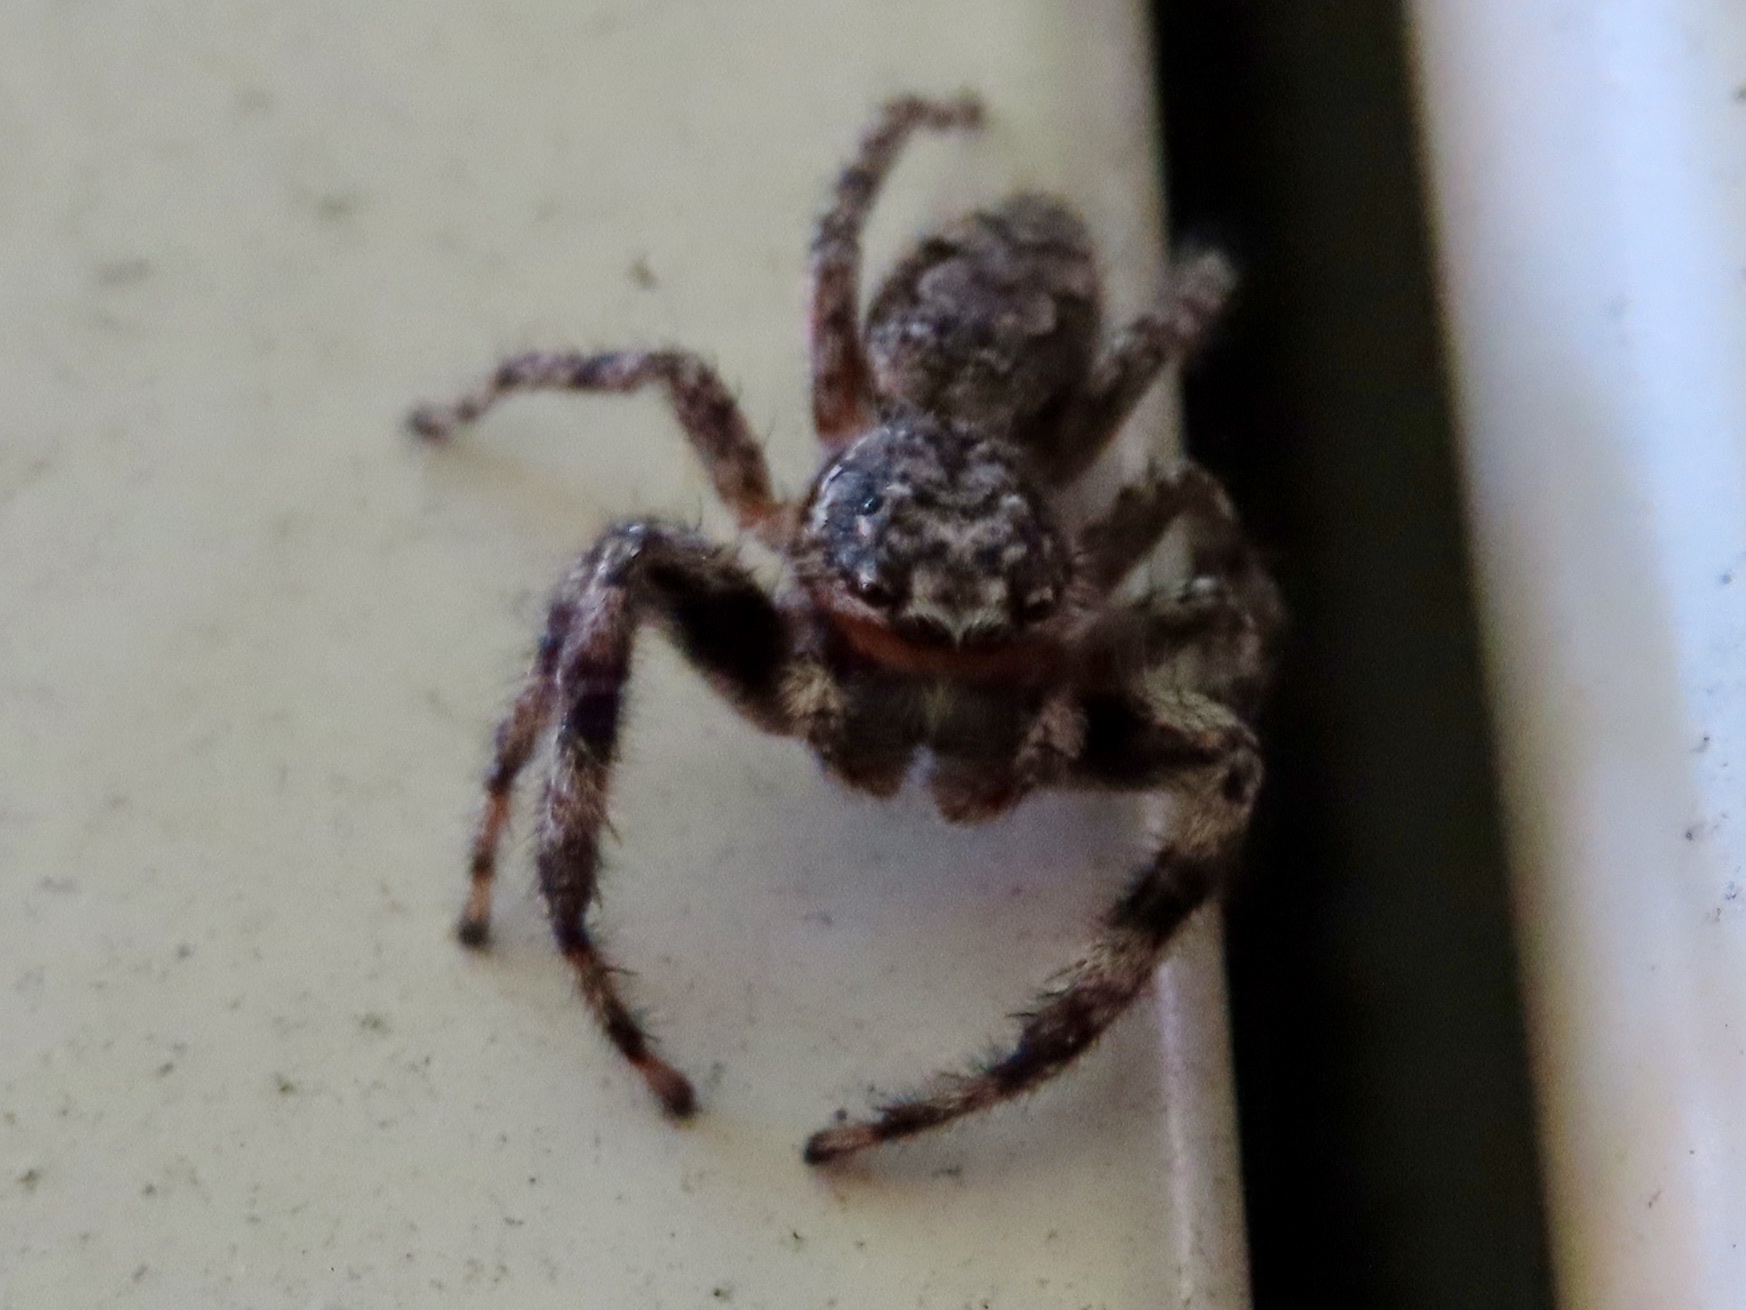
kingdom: Animalia
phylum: Arthropoda
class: Arachnida
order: Araneae
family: Salticidae
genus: Platycryptus
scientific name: Platycryptus undatus
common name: Tan jumping spider
